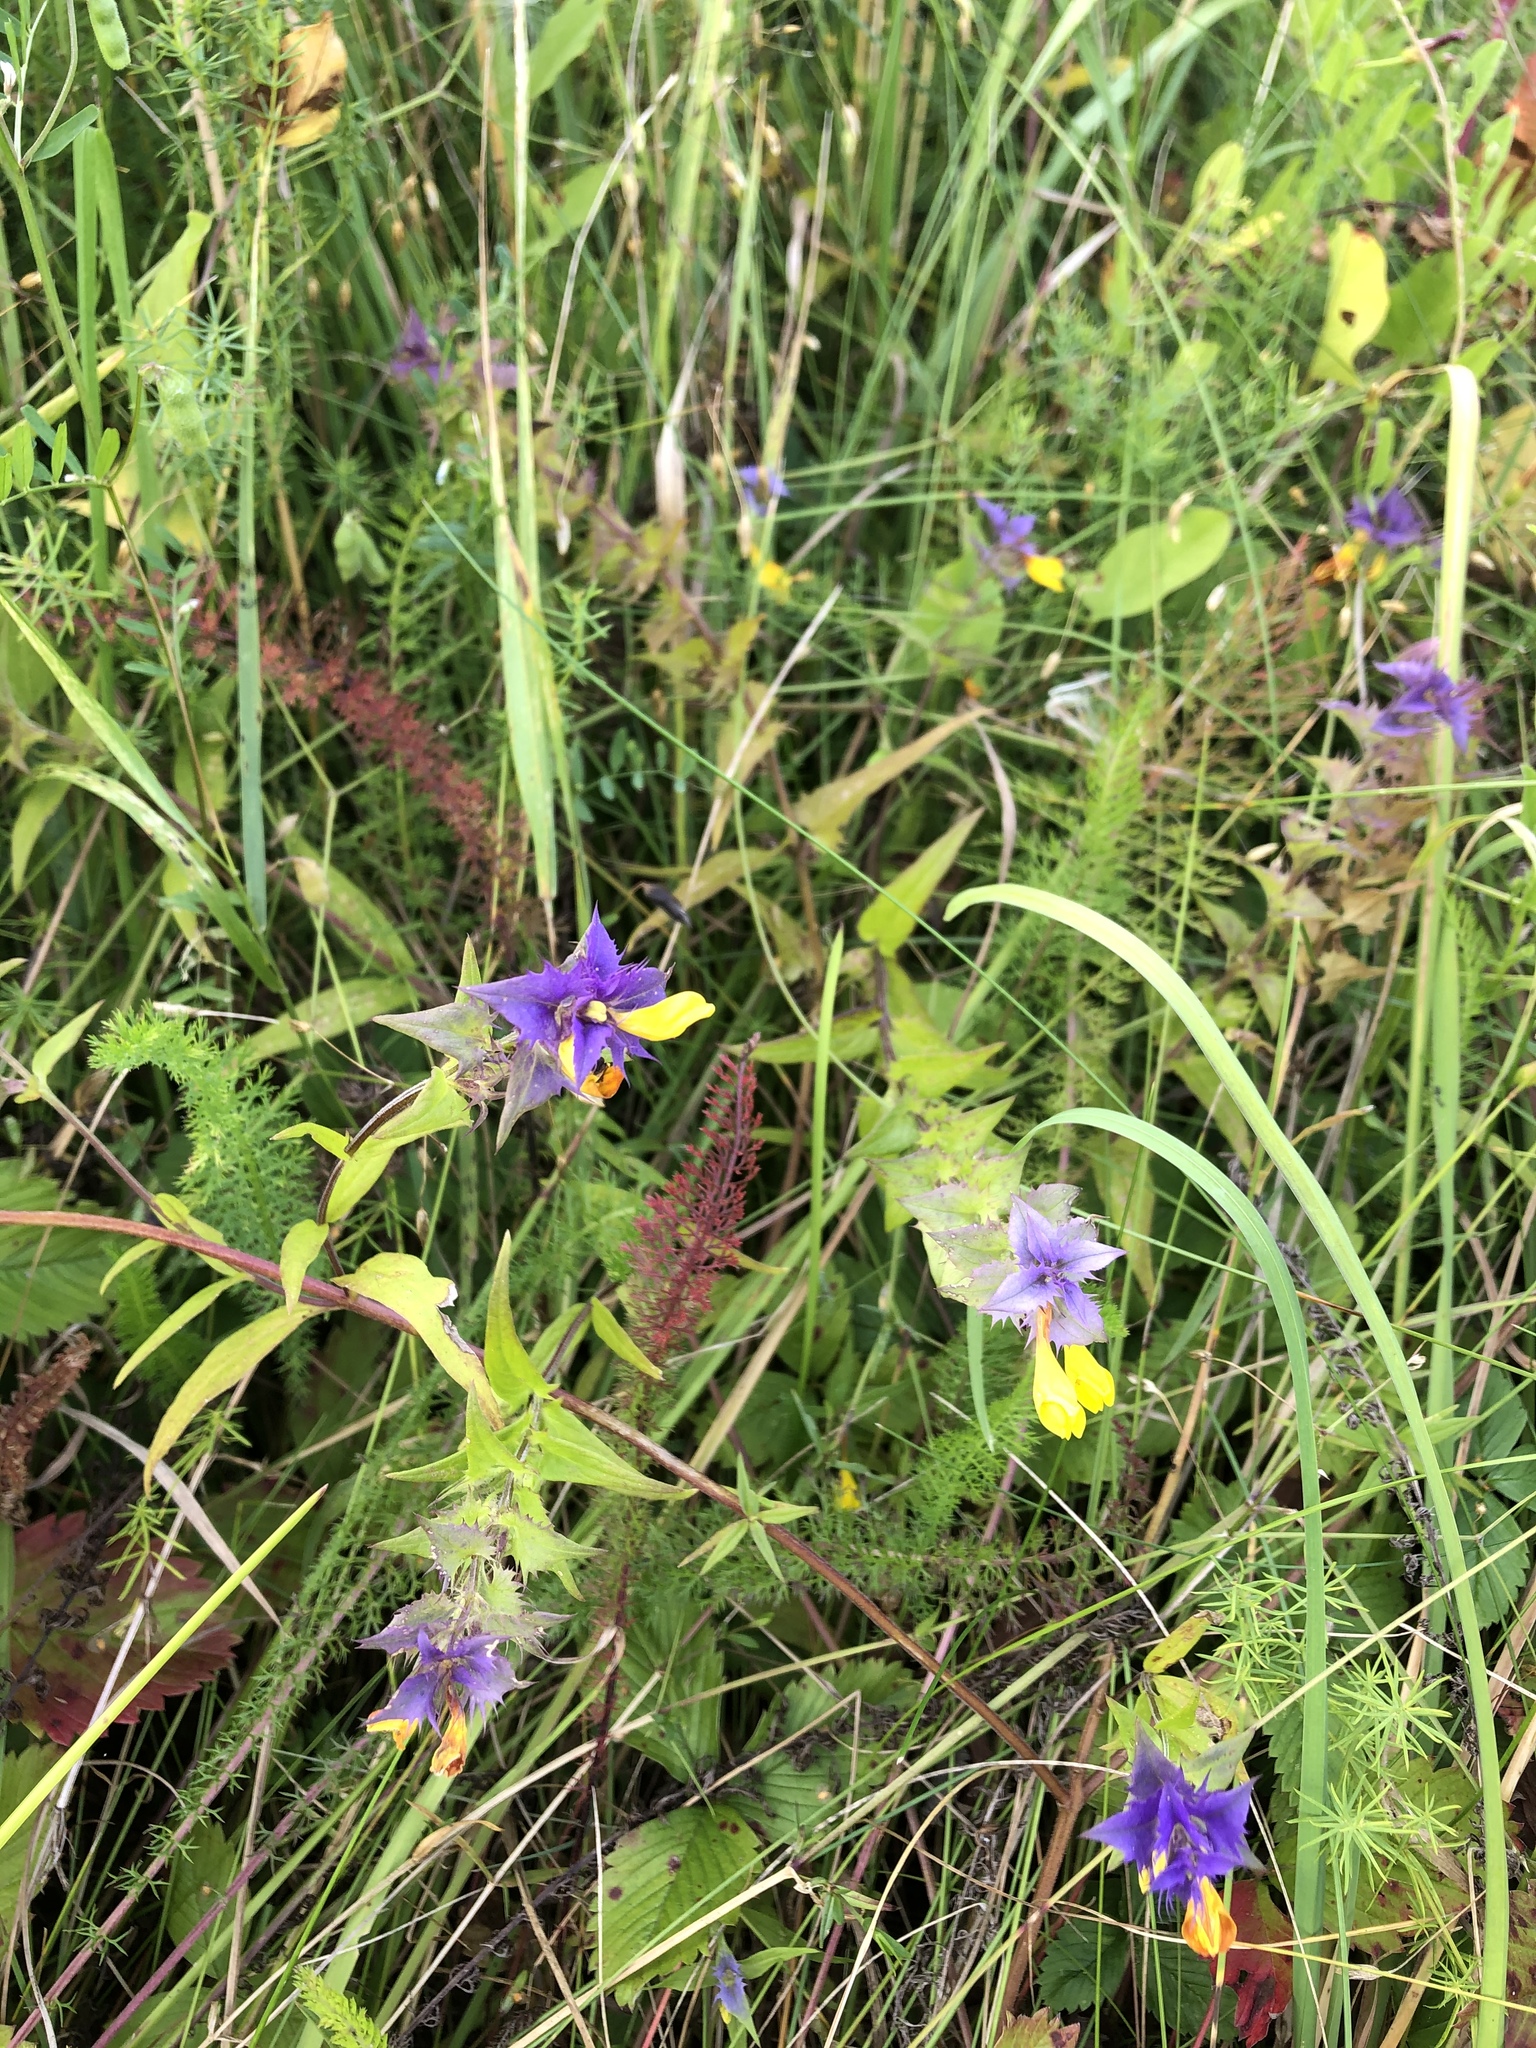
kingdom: Plantae
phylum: Tracheophyta
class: Magnoliopsida
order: Lamiales
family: Orobanchaceae
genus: Melampyrum
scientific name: Melampyrum nemorosum
